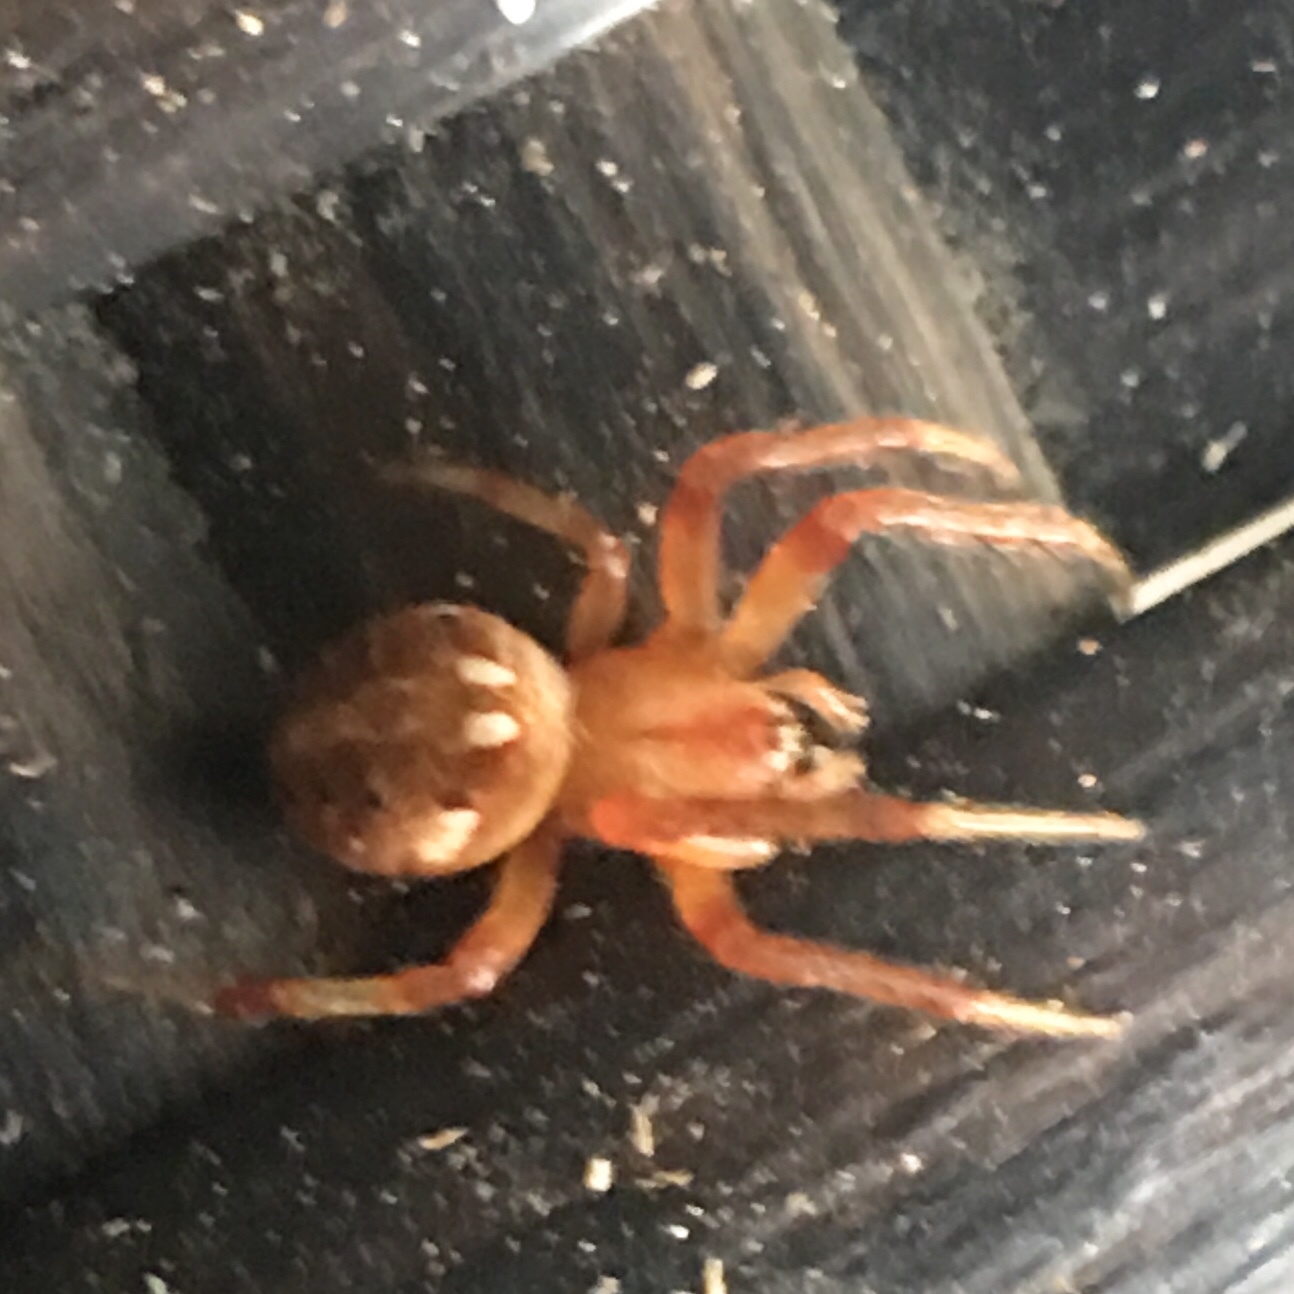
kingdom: Animalia
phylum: Arthropoda
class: Arachnida
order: Araneae
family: Araneidae
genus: Neoscona
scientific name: Neoscona arabesca
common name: Orb weavers
